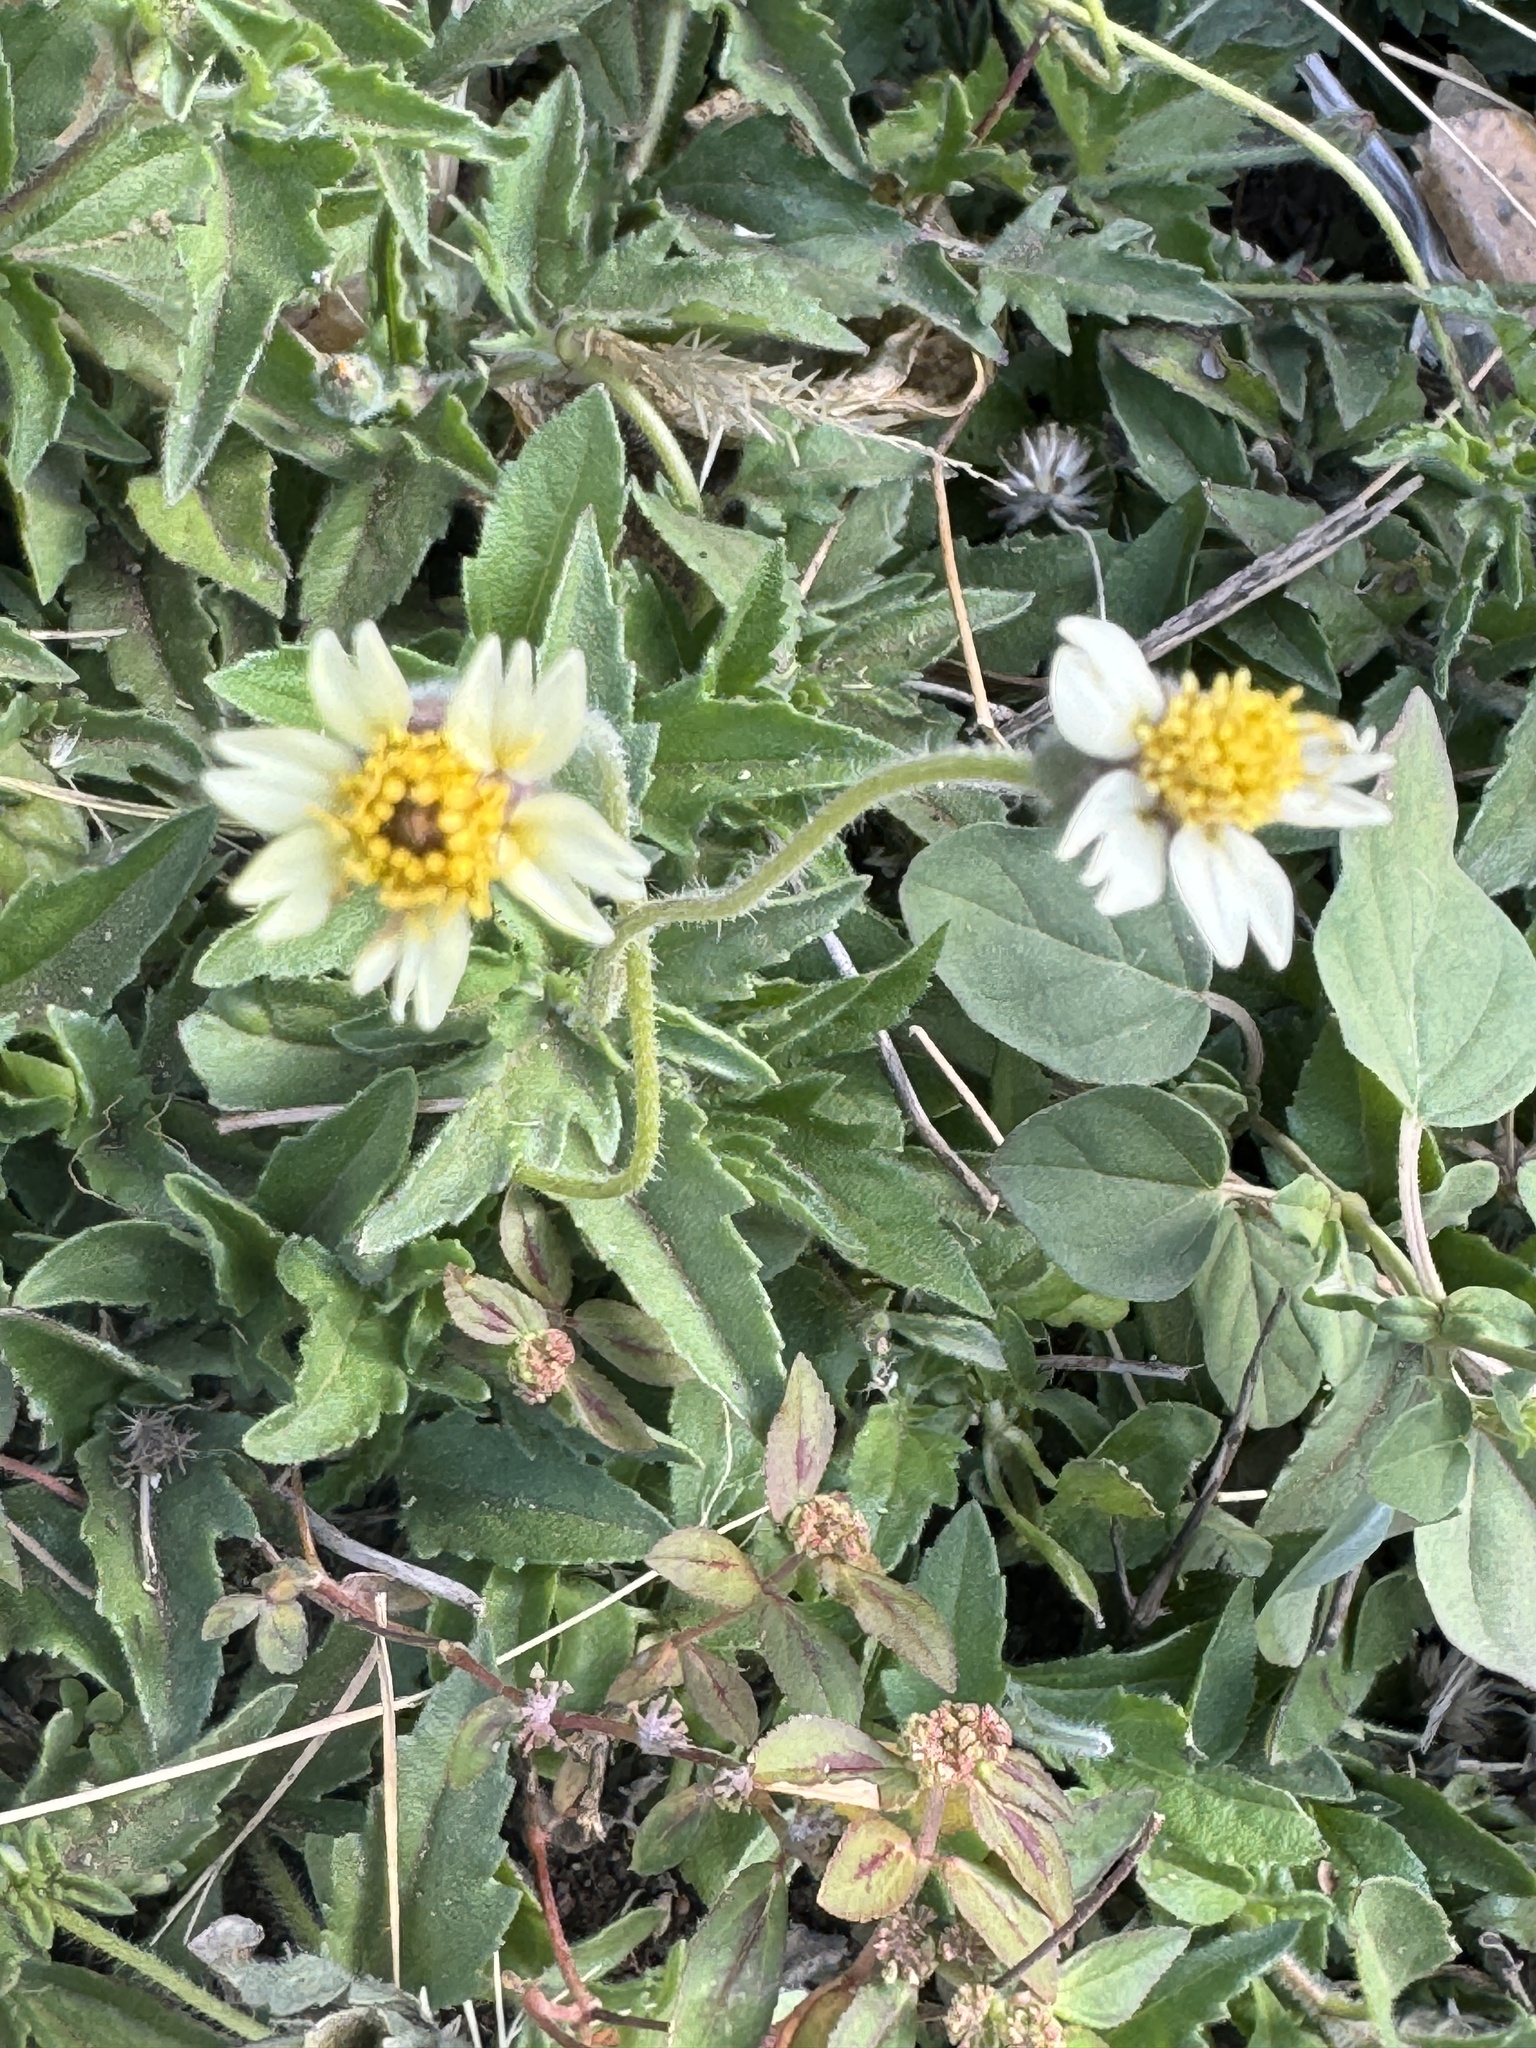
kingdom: Plantae
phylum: Tracheophyta
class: Magnoliopsida
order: Asterales
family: Asteraceae
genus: Tridax
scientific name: Tridax procumbens
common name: Coatbuttons
